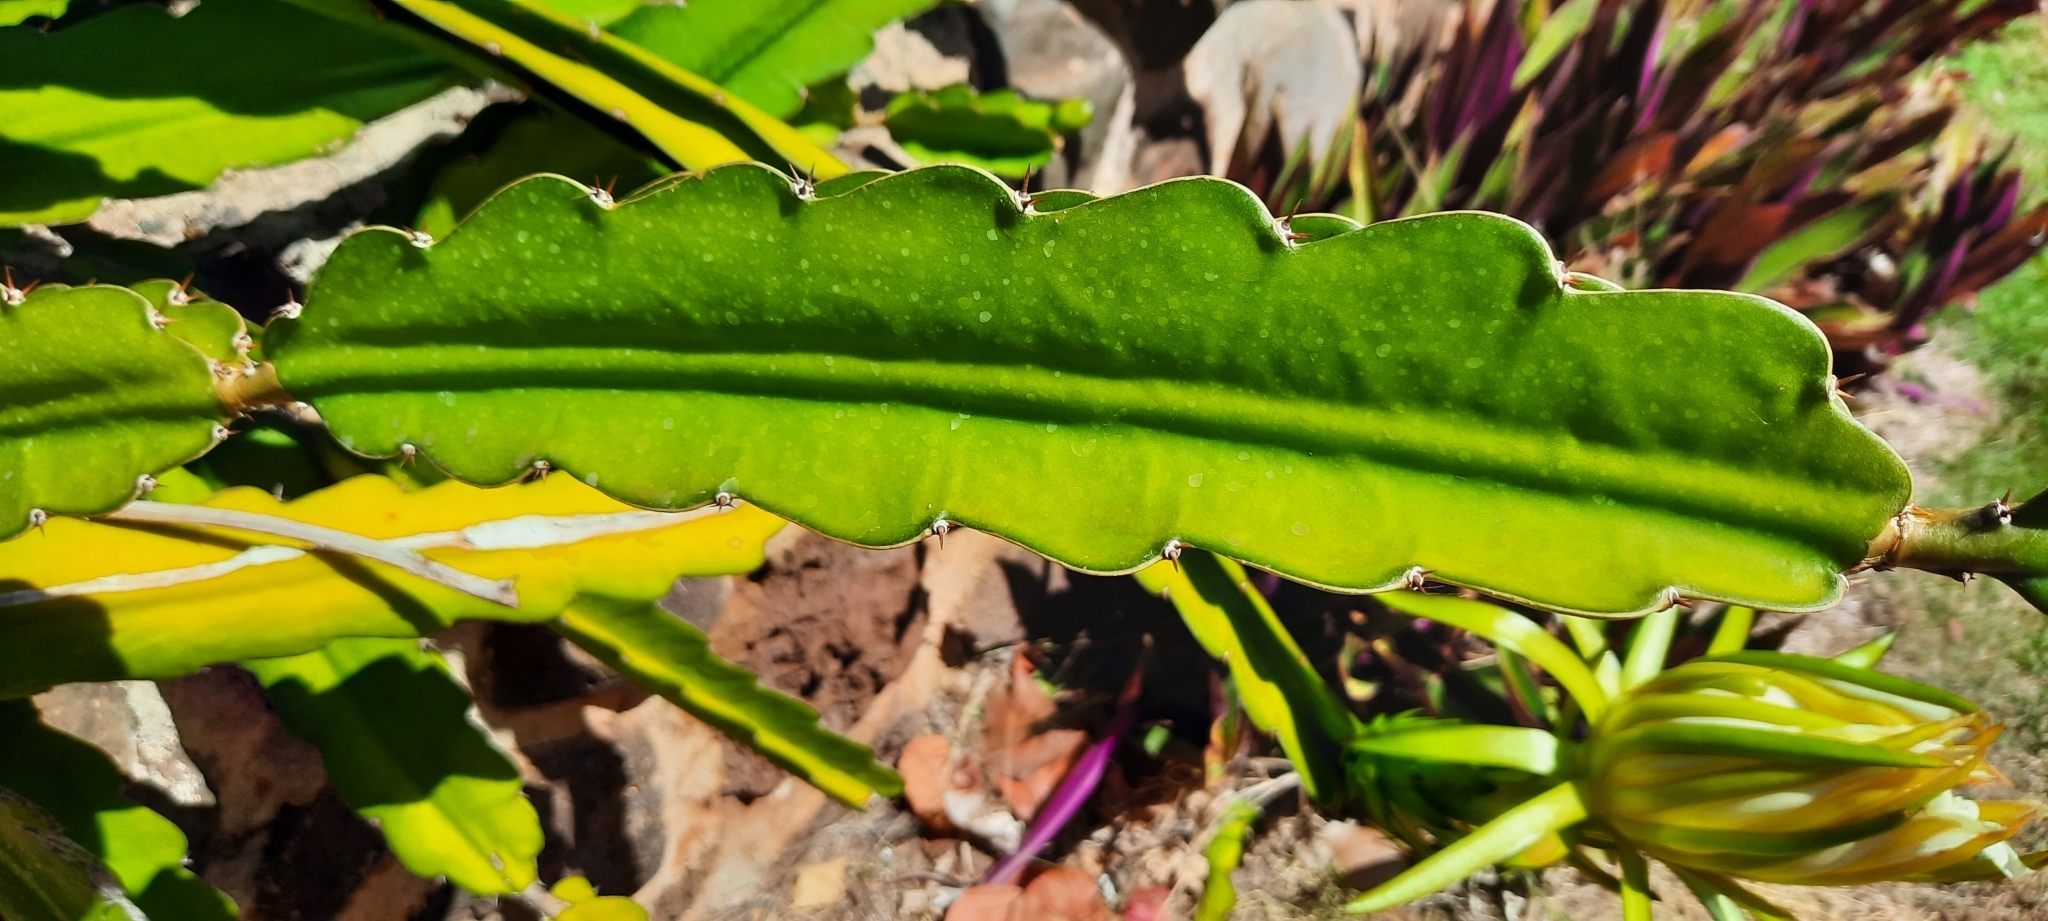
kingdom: Plantae
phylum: Tracheophyta
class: Magnoliopsida
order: Caryophyllales
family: Cactaceae
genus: Selenicereus
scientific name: Selenicereus undatus
